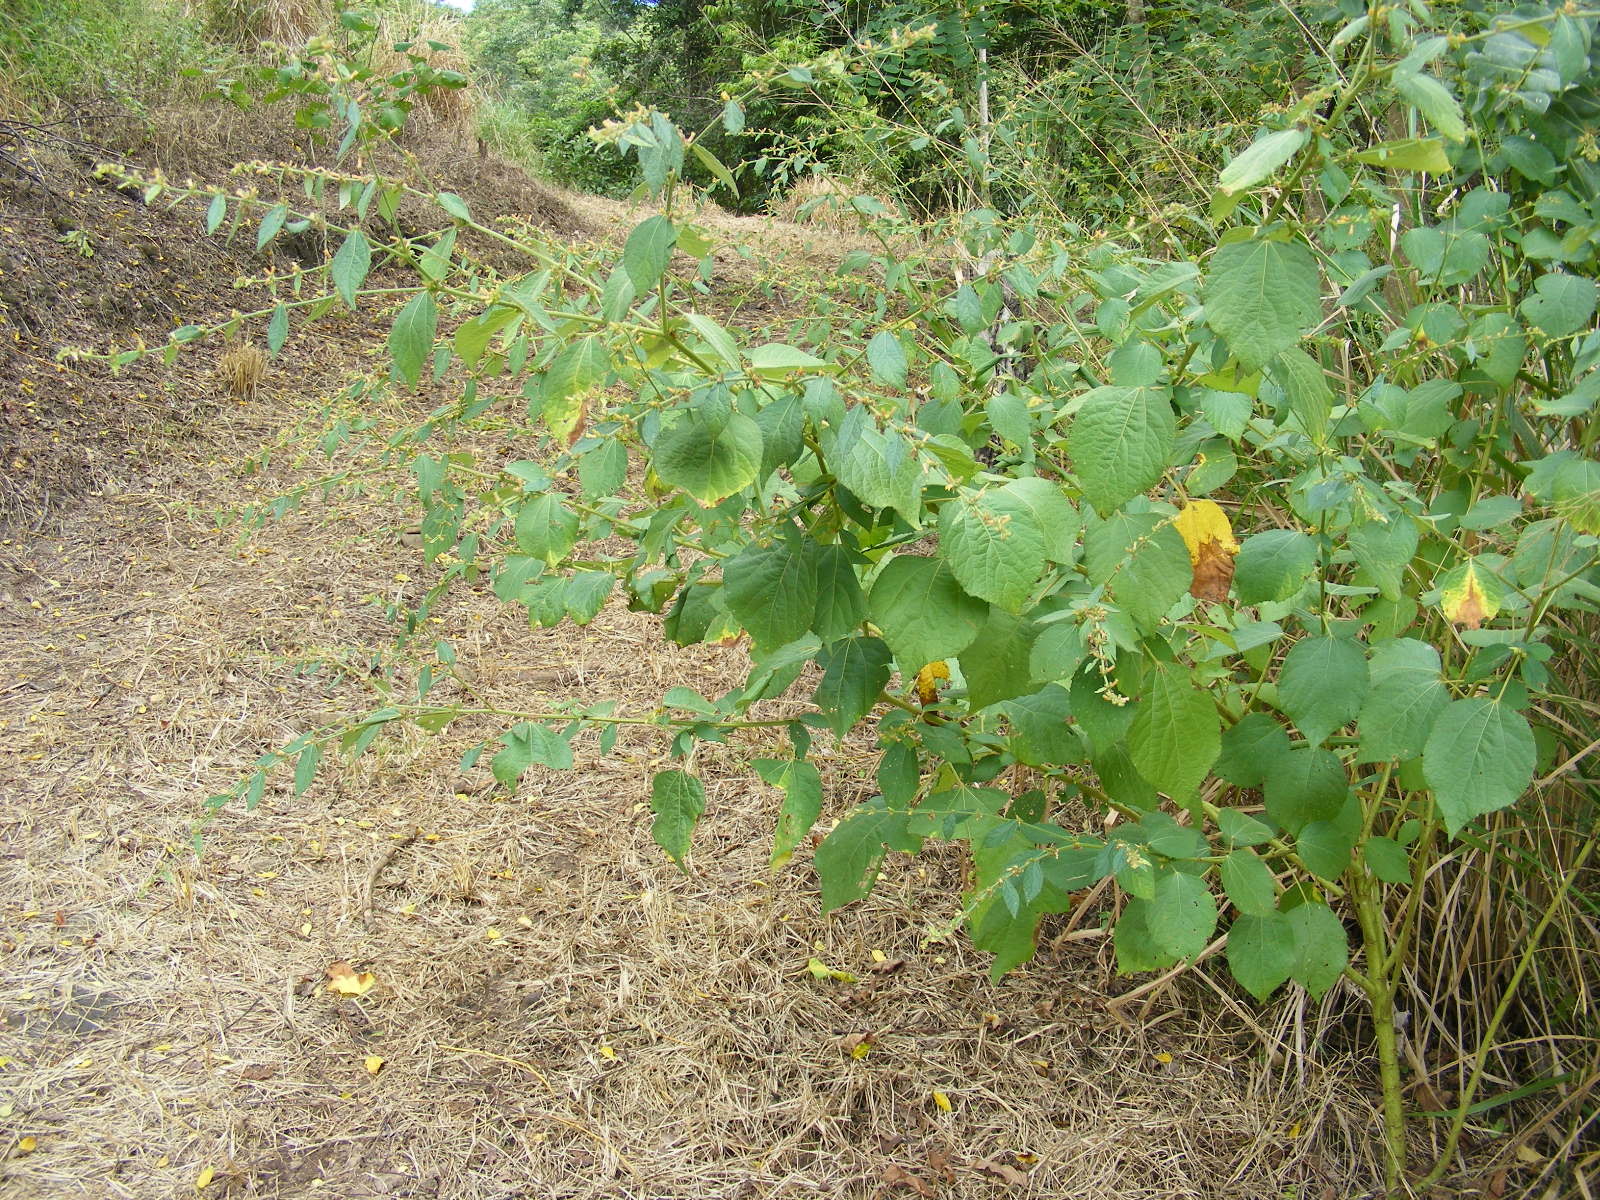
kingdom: Plantae
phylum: Tracheophyta
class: Magnoliopsida
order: Malvales
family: Malvaceae
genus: Triumfetta
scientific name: Triumfetta rhomboidea
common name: Diamond burbark
